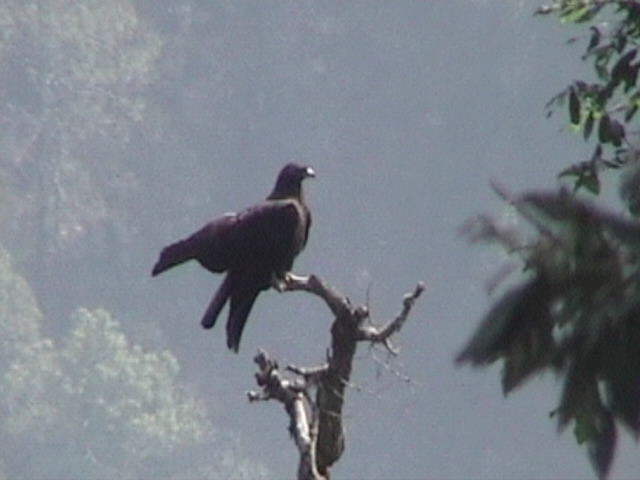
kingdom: Animalia
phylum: Chordata
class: Aves
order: Accipitriformes
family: Accipitridae
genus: Ictinaetus
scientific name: Ictinaetus malayensis
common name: Black eagle
